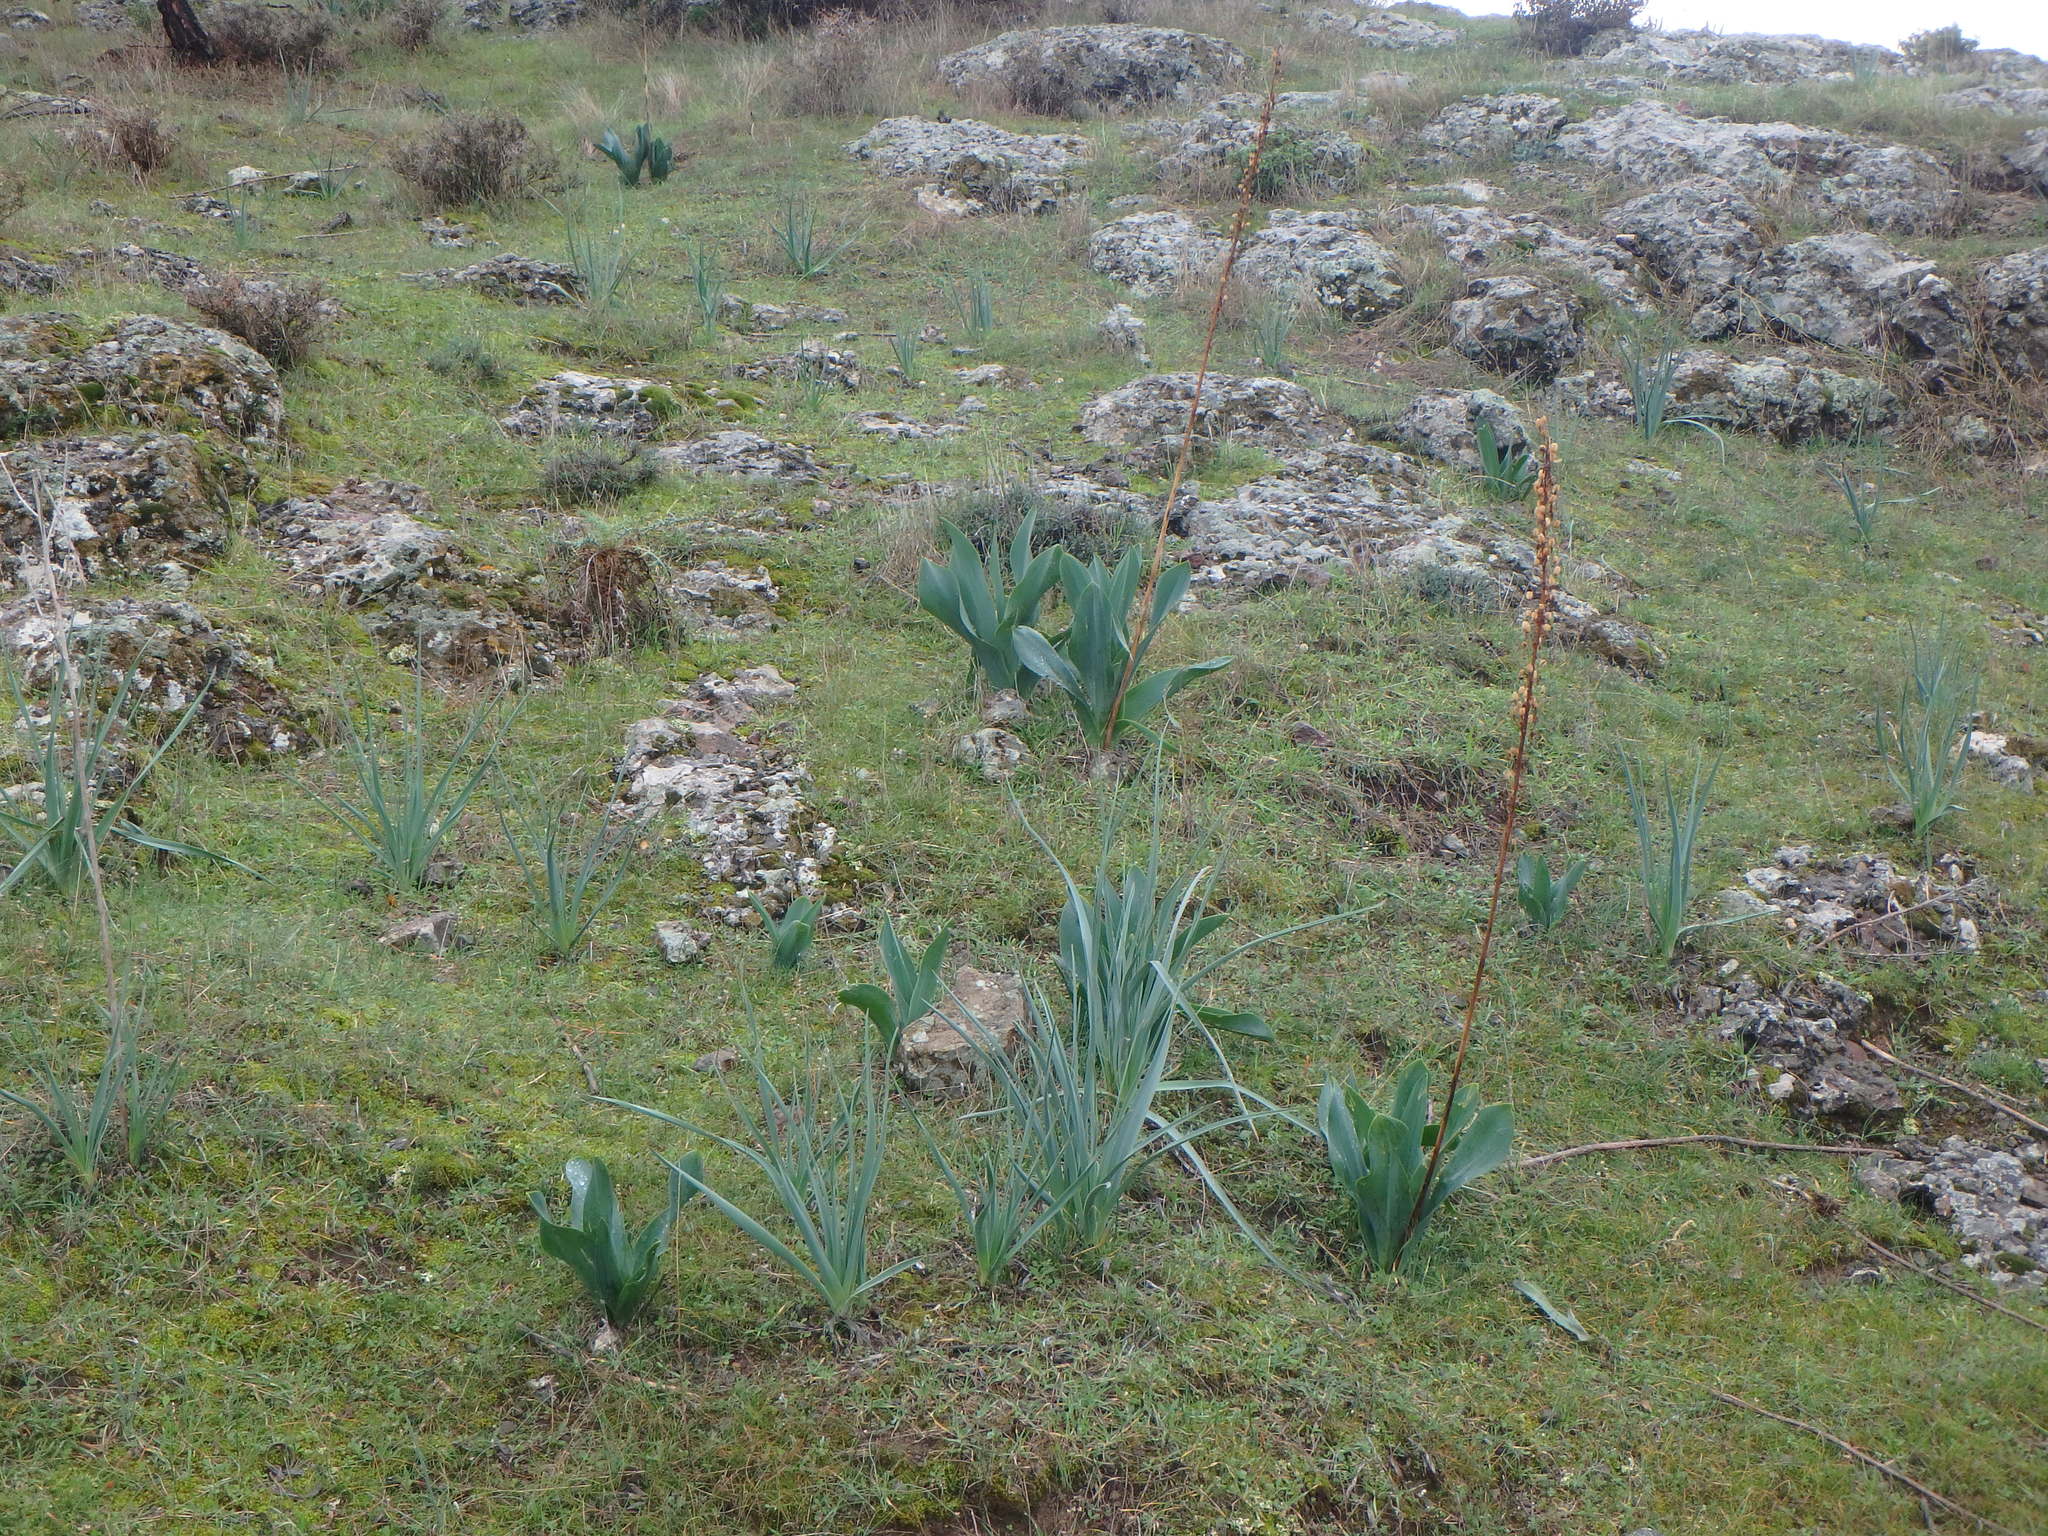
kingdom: Plantae
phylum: Tracheophyta
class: Liliopsida
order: Asparagales
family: Asparagaceae
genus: Drimia
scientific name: Drimia aphylla
